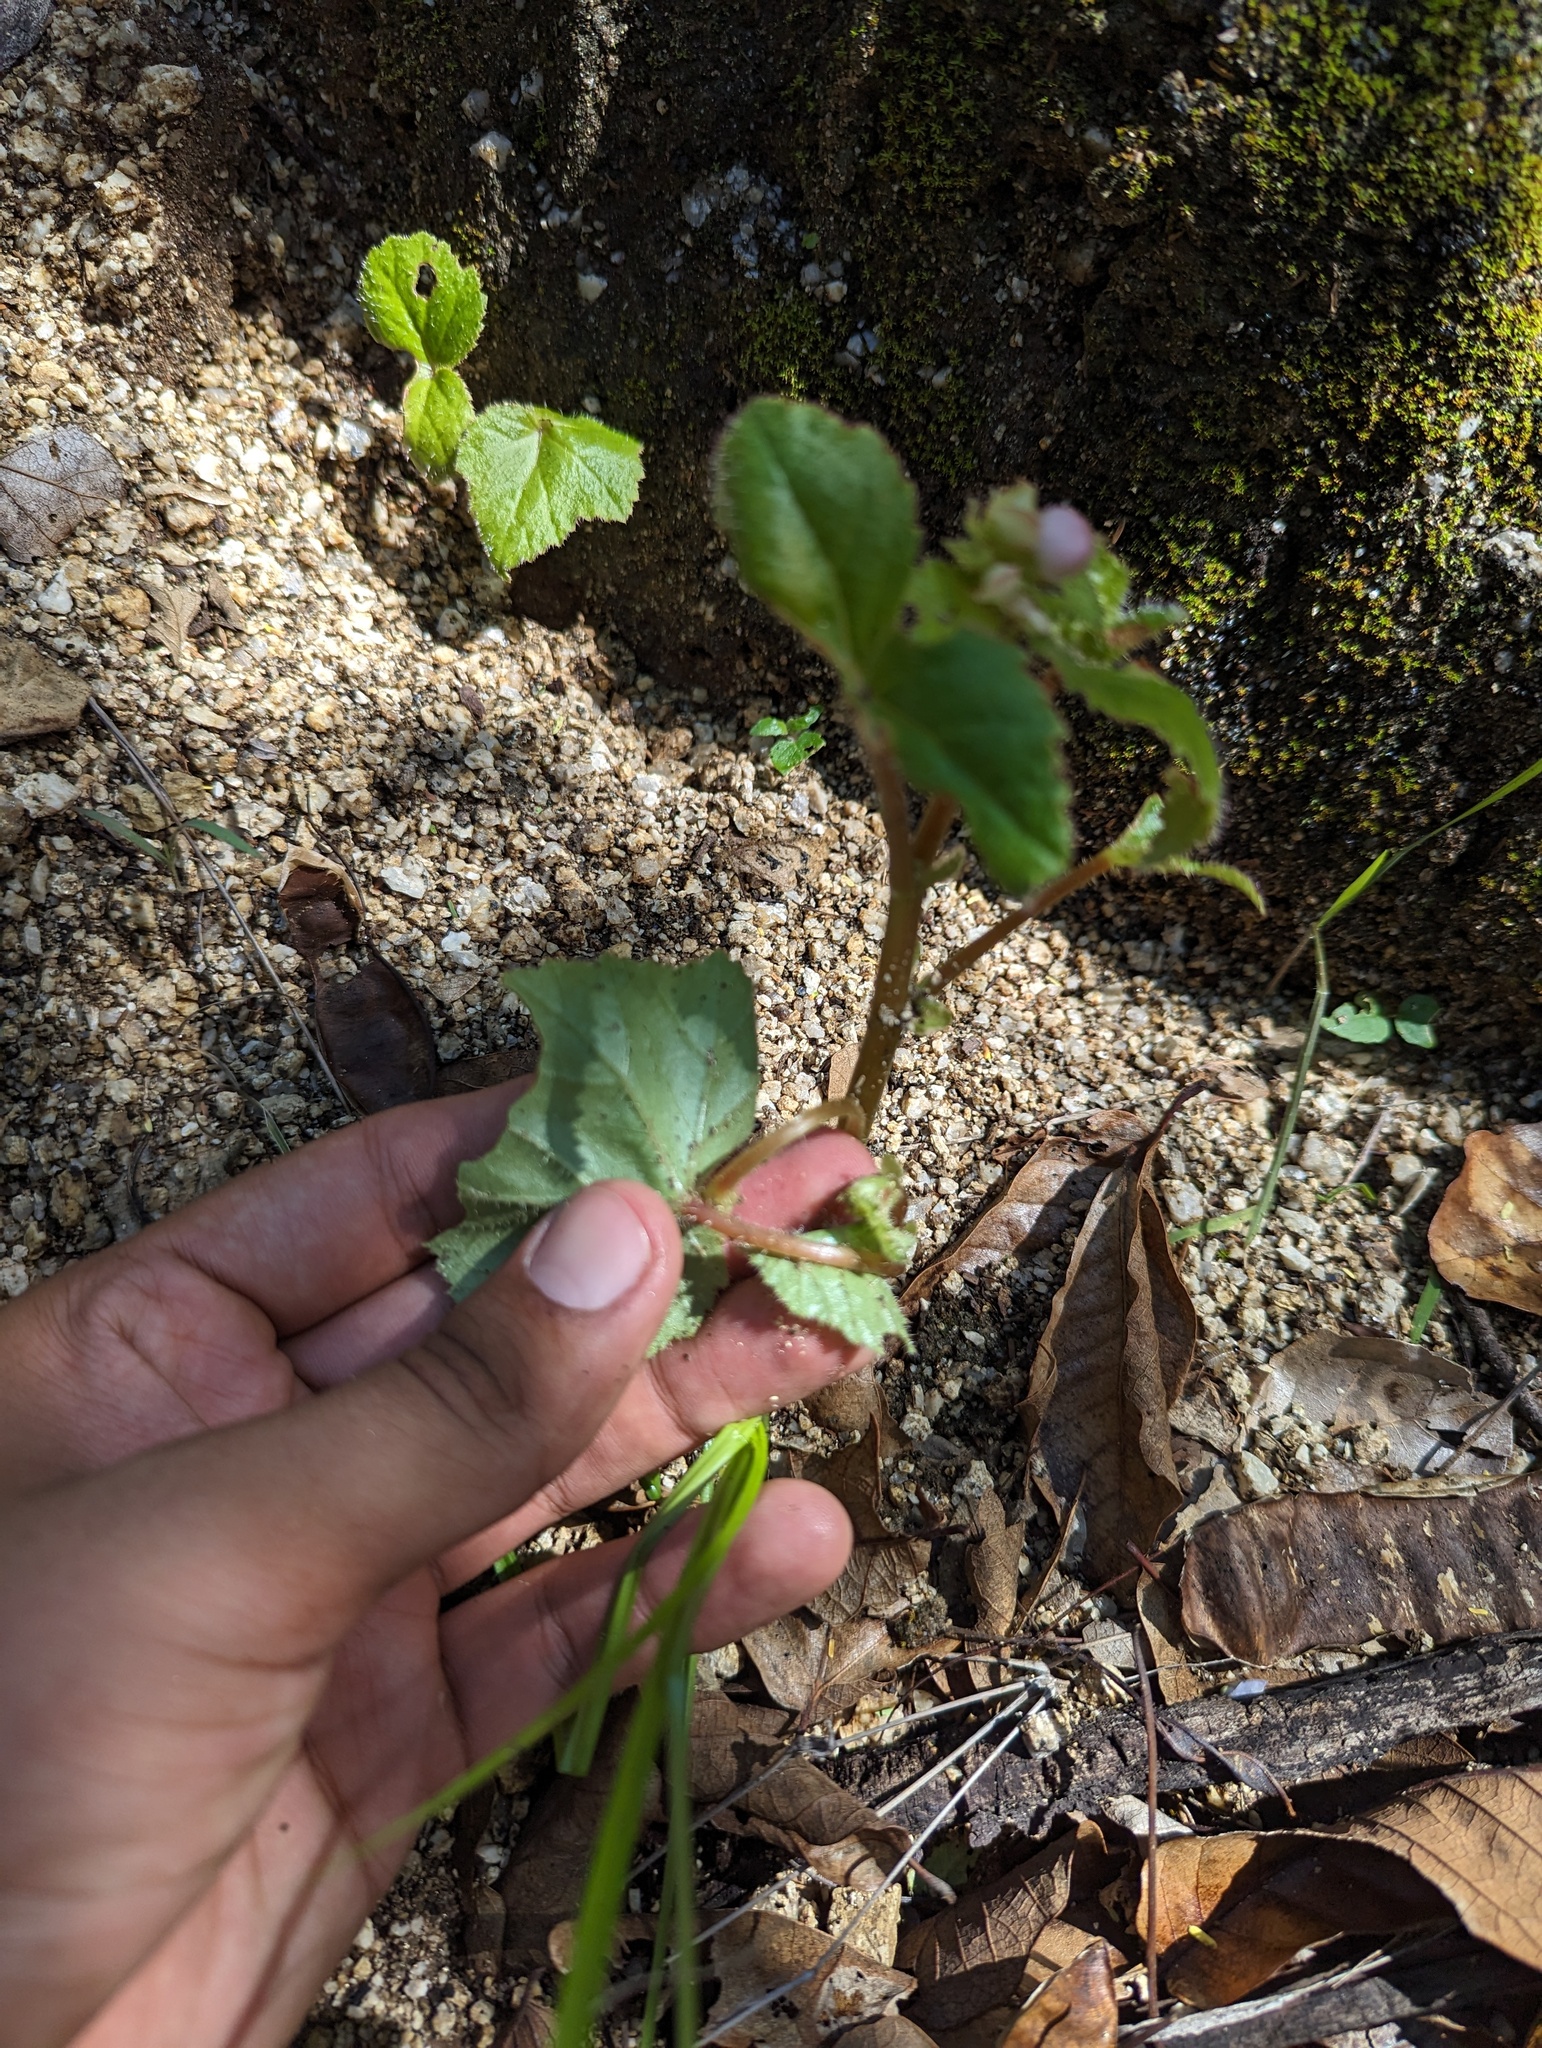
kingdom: Plantae
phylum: Tracheophyta
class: Magnoliopsida
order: Cucurbitales
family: Begoniaceae
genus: Begonia
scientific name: Begonia palmeri
